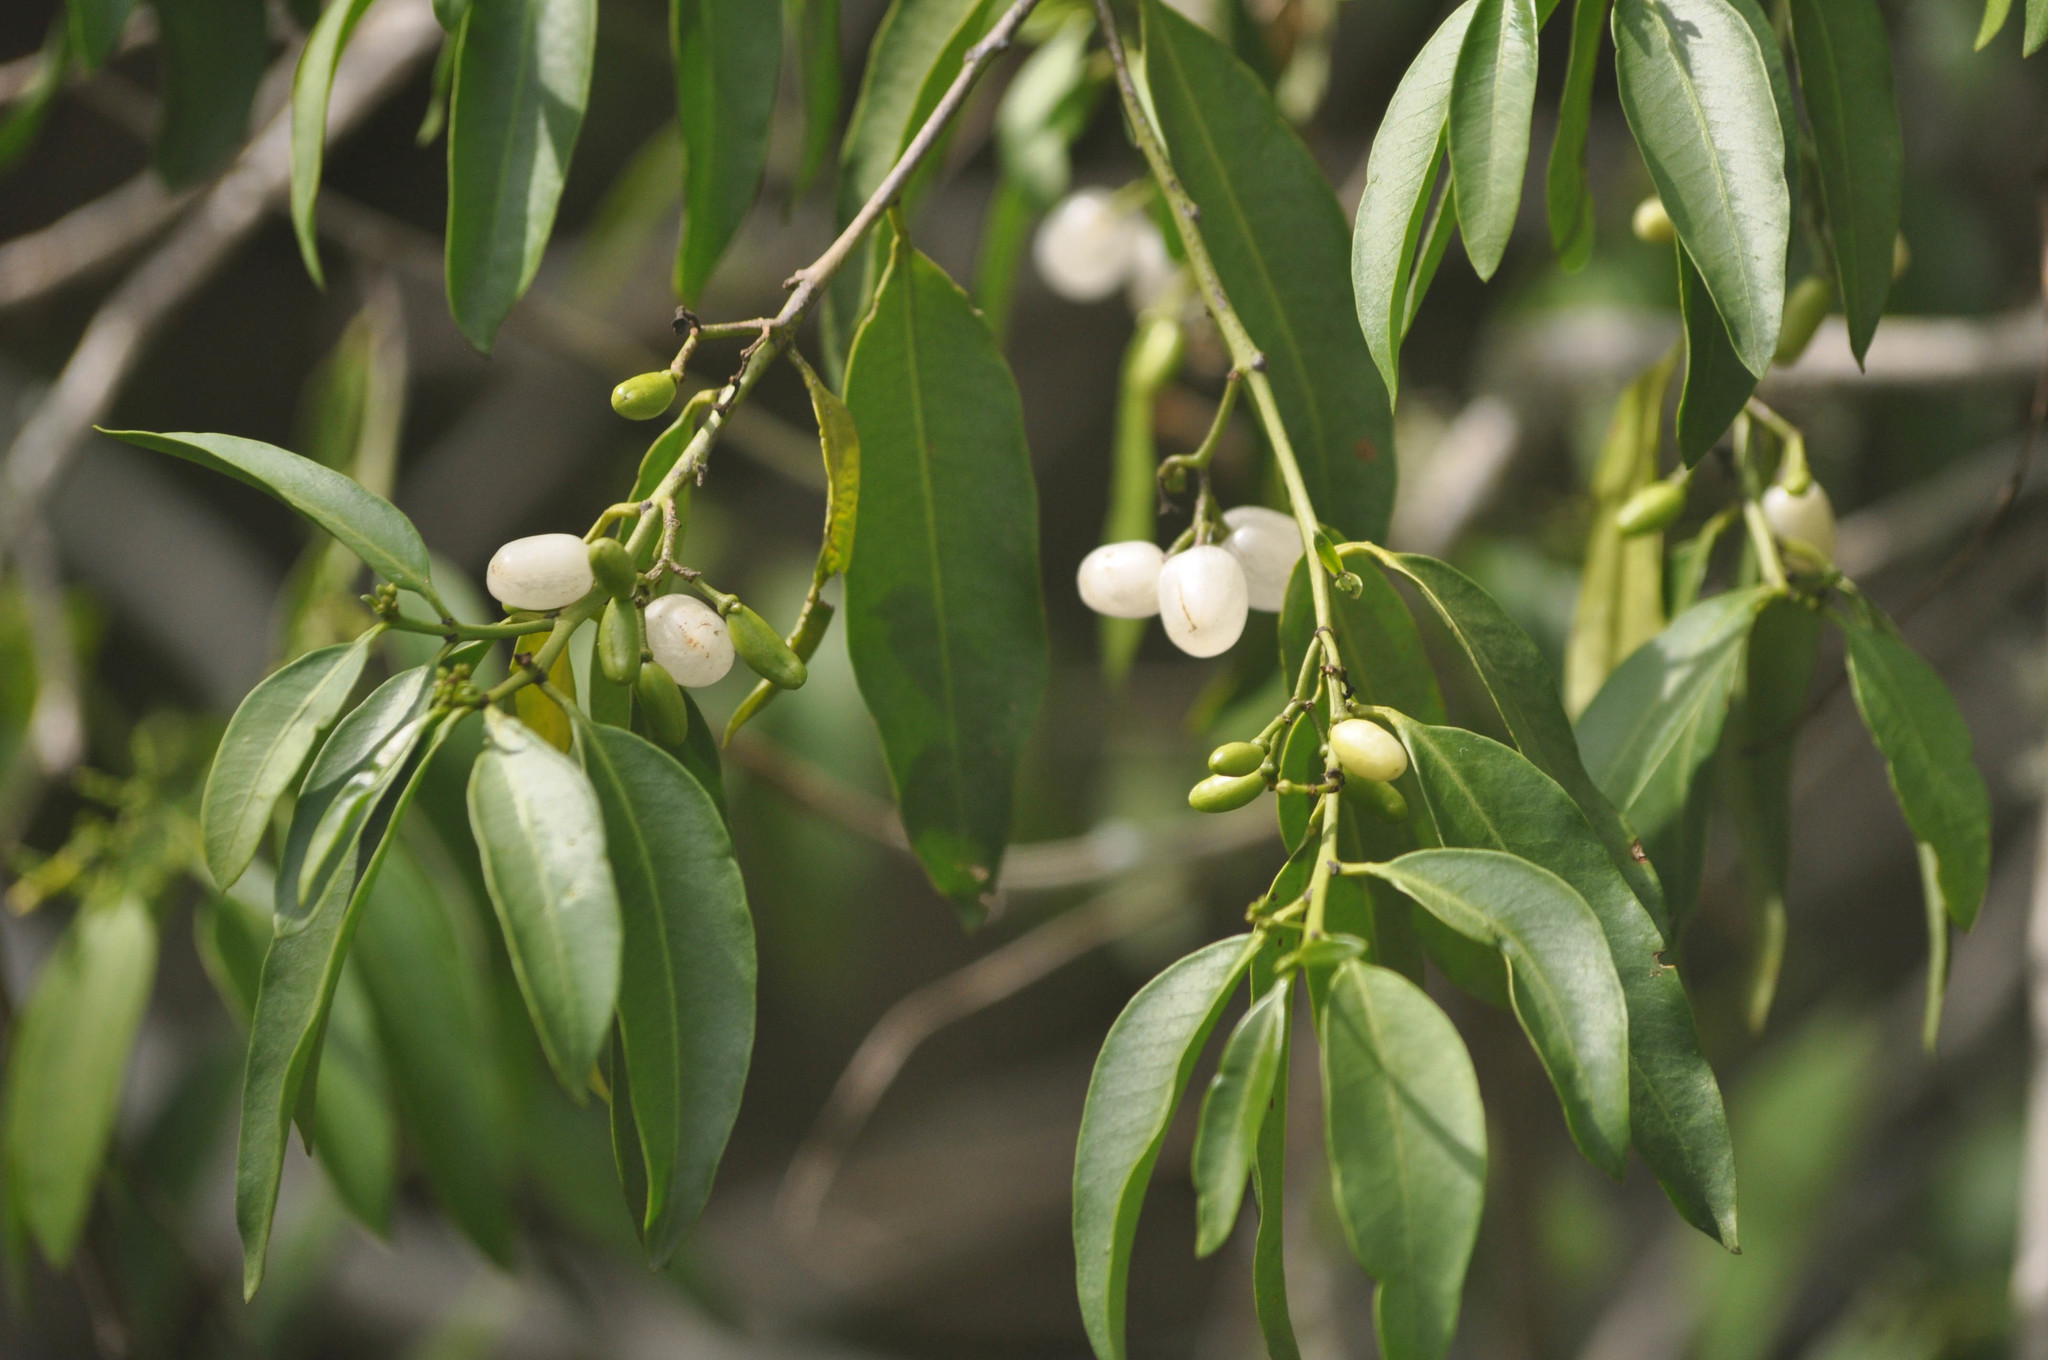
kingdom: Plantae
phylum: Tracheophyta
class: Magnoliopsida
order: Gentianales
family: Apocynaceae
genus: Vallesia
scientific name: Vallesia glabra
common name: Pearlberry
